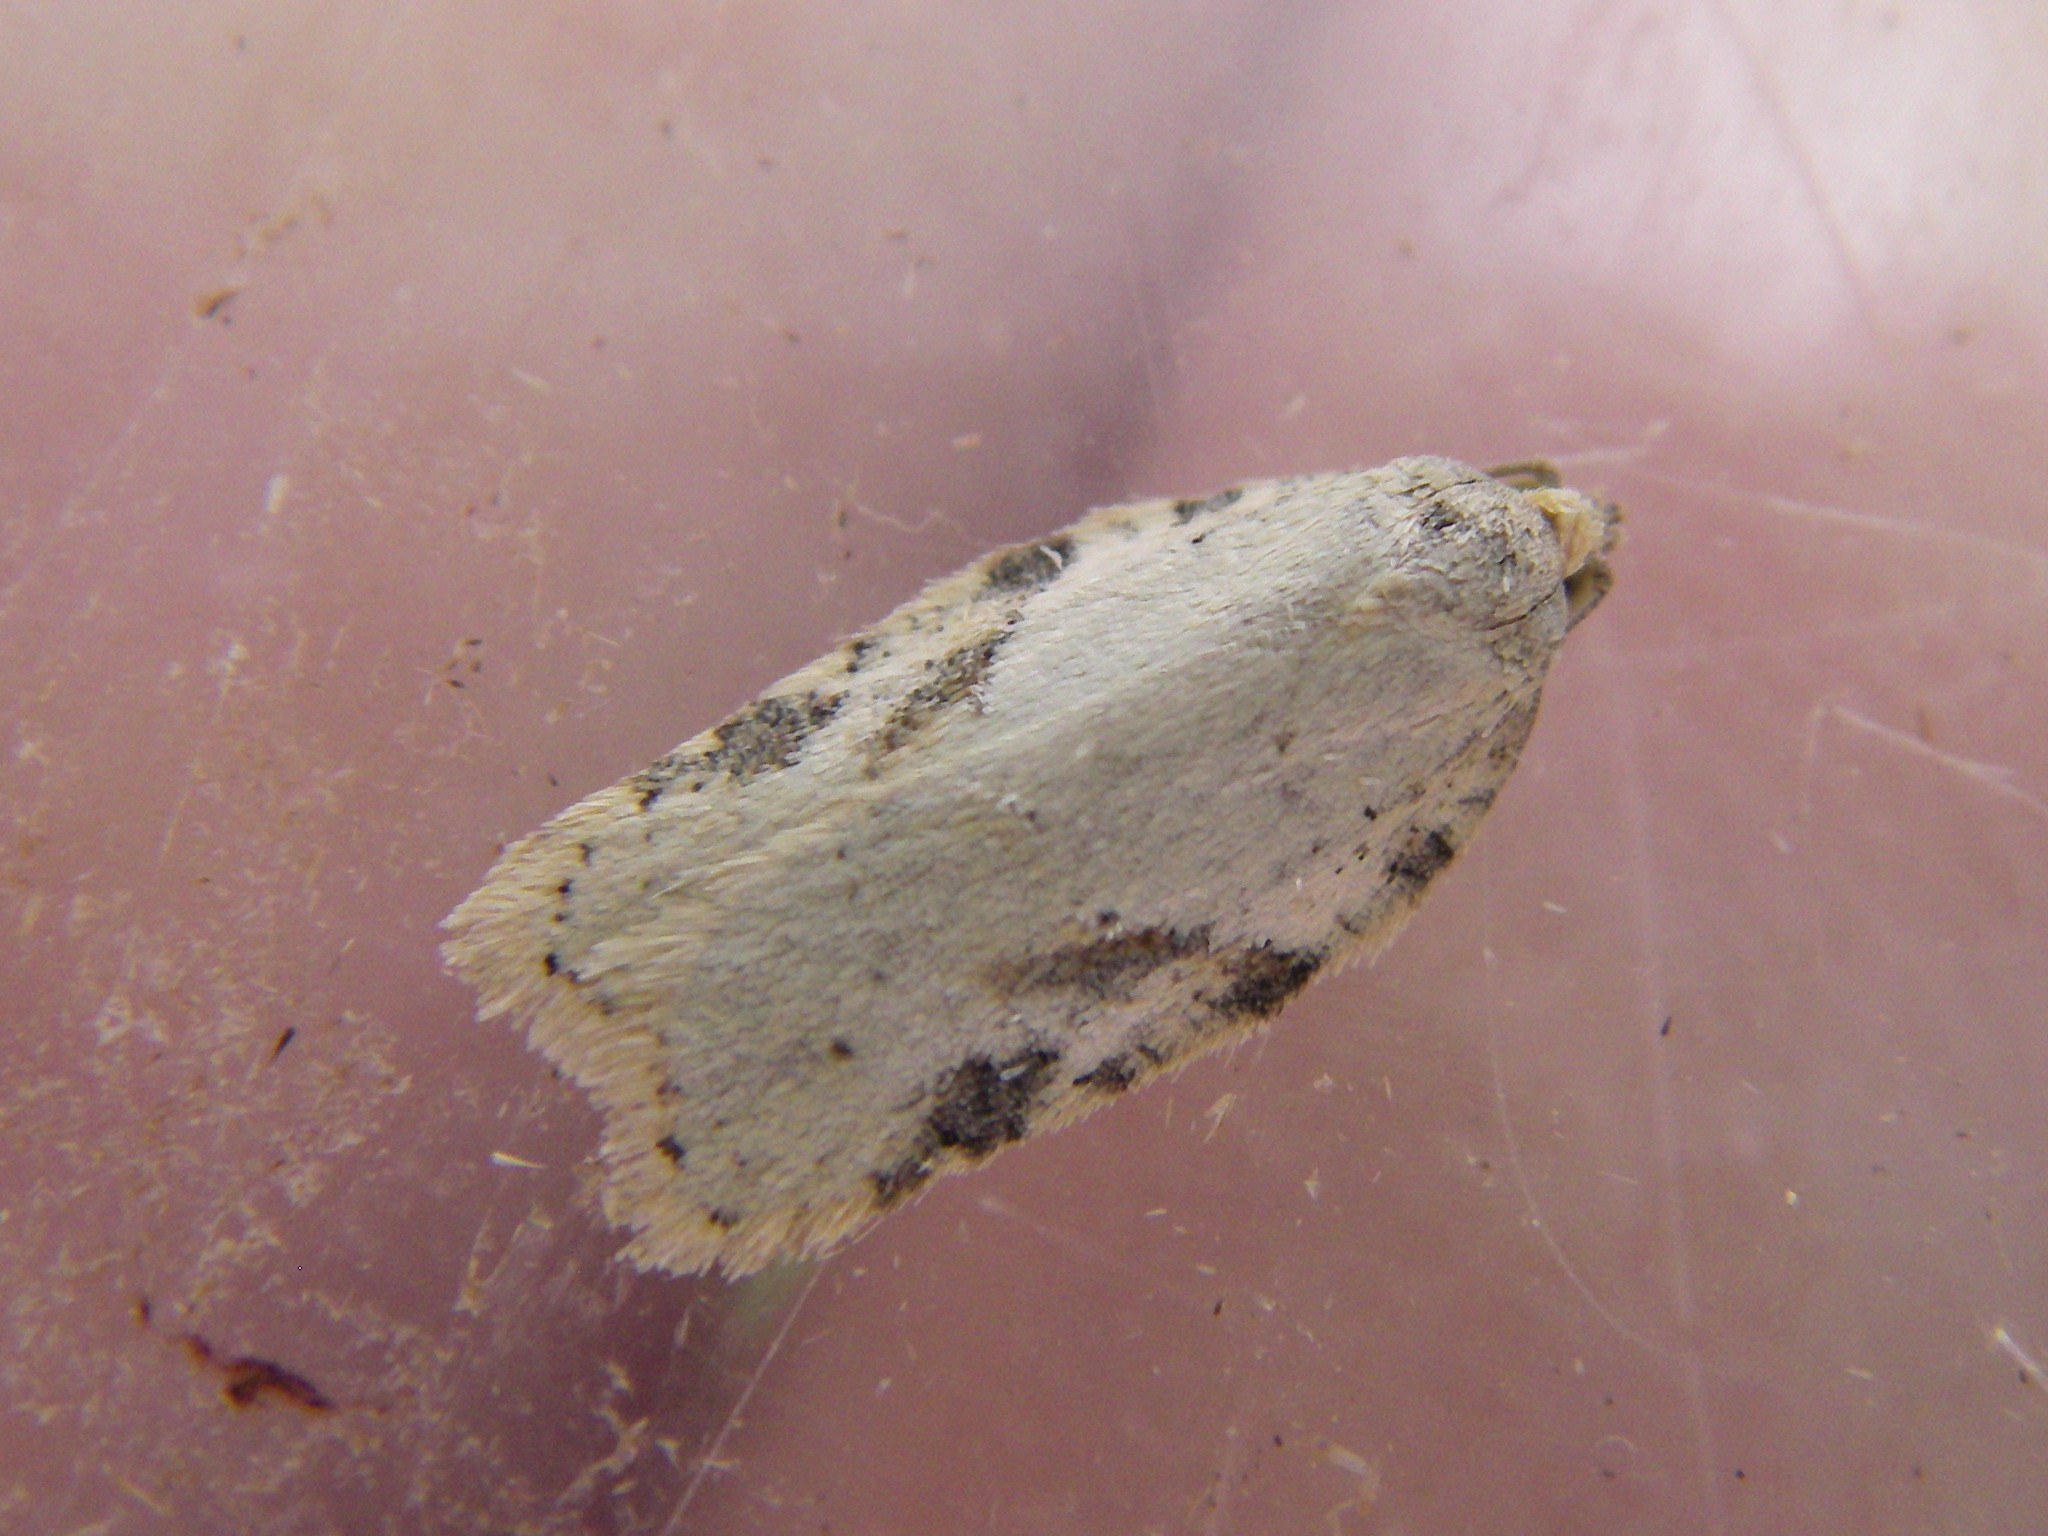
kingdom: Animalia
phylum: Arthropoda
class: Insecta
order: Lepidoptera
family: Tortricidae
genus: Acleris
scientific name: Acleris logiana
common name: Grey birch button
